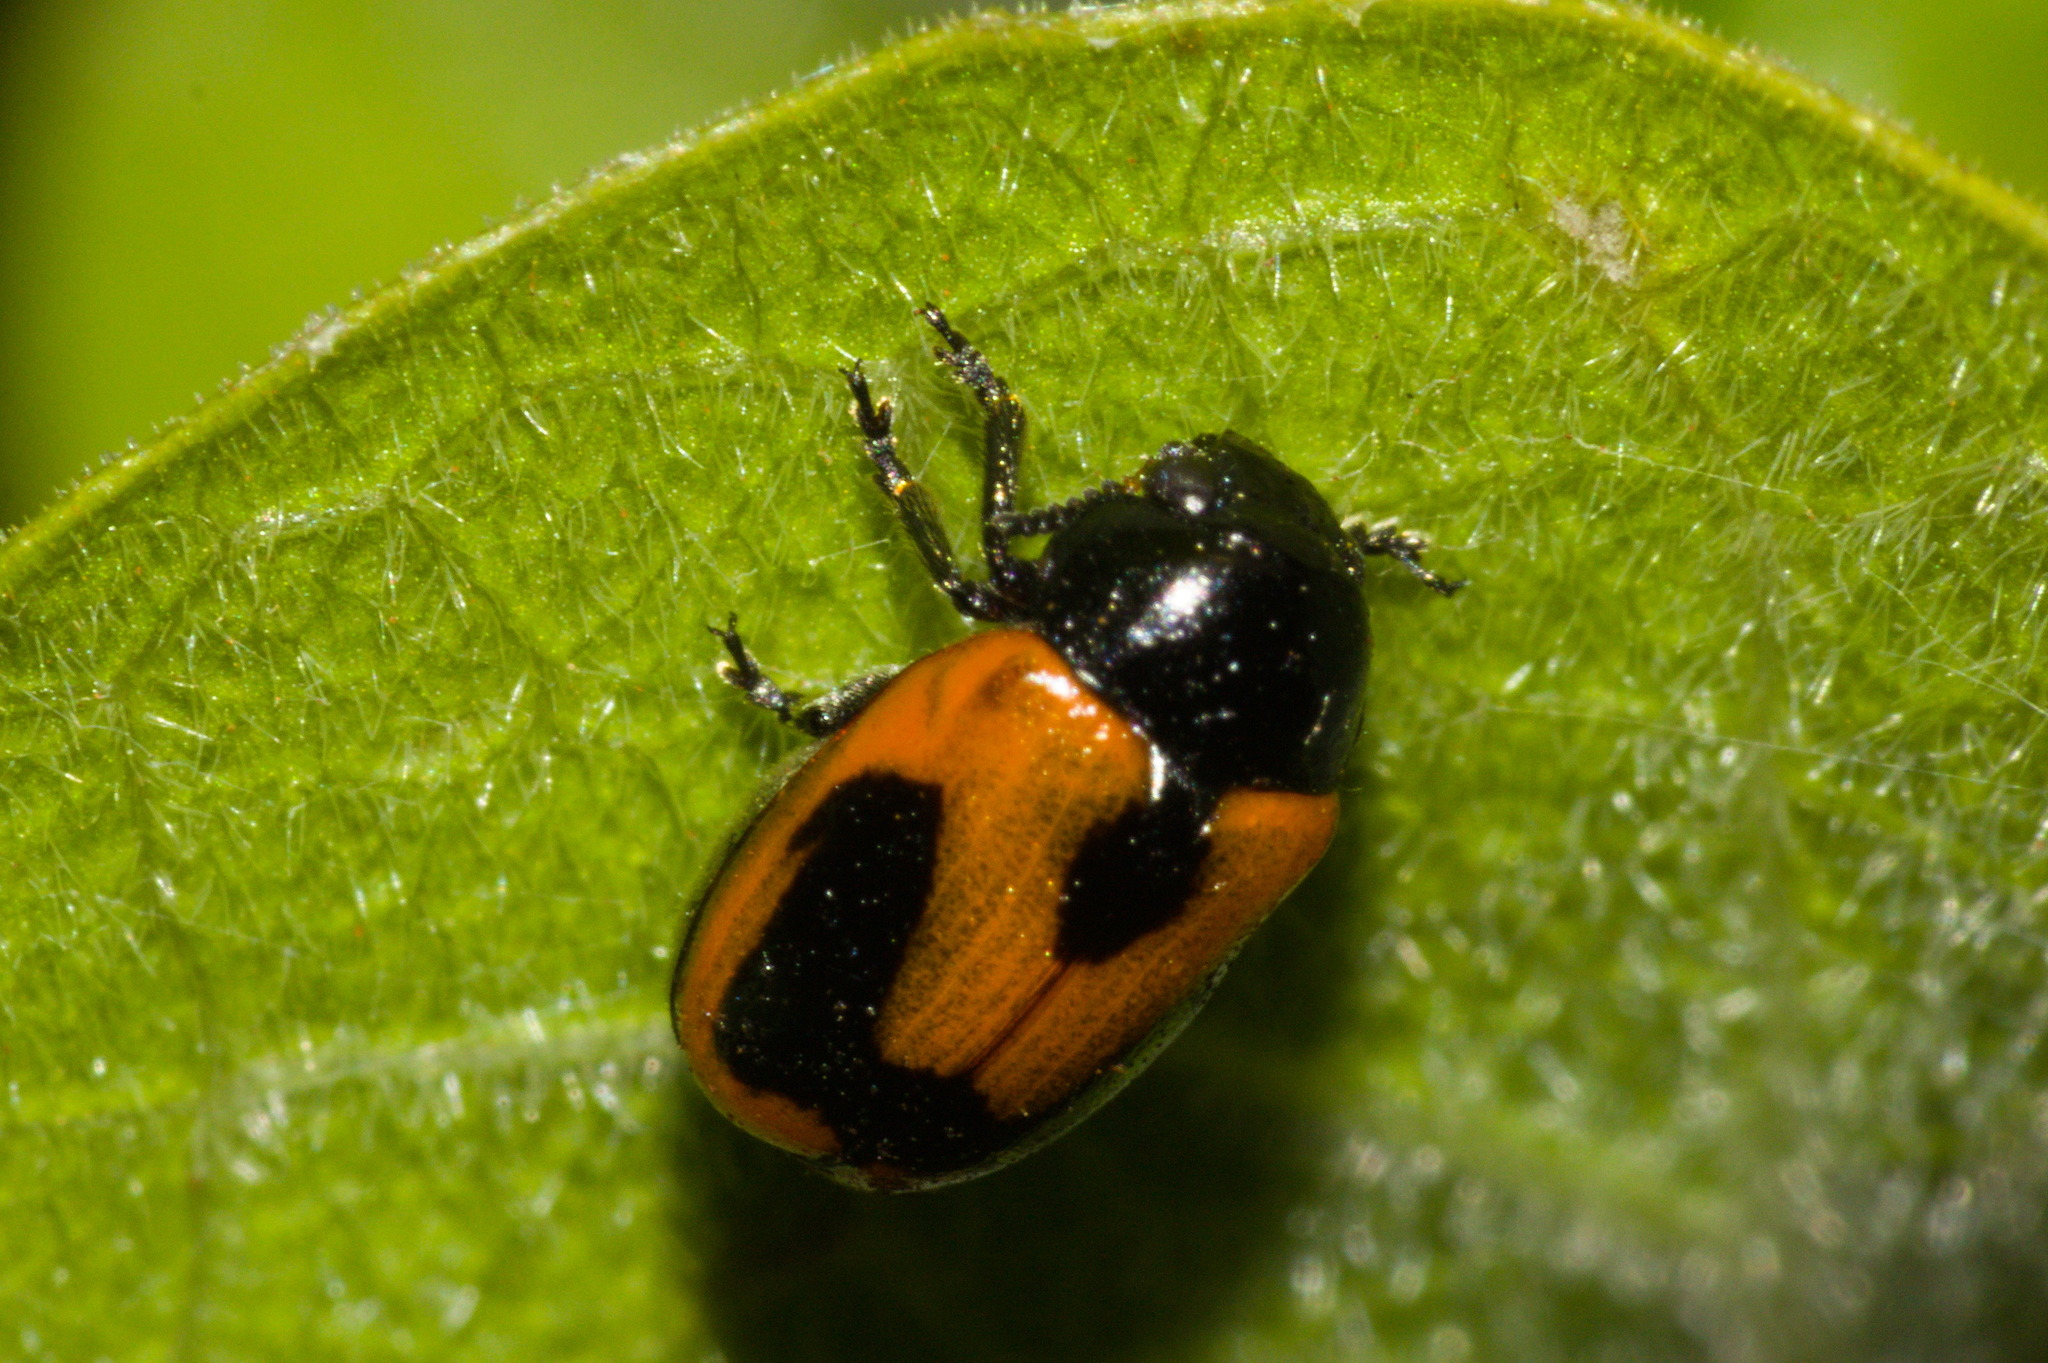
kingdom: Animalia
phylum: Arthropoda
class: Insecta
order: Coleoptera
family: Chrysomelidae
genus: Temnodachrys
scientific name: Temnodachrys
